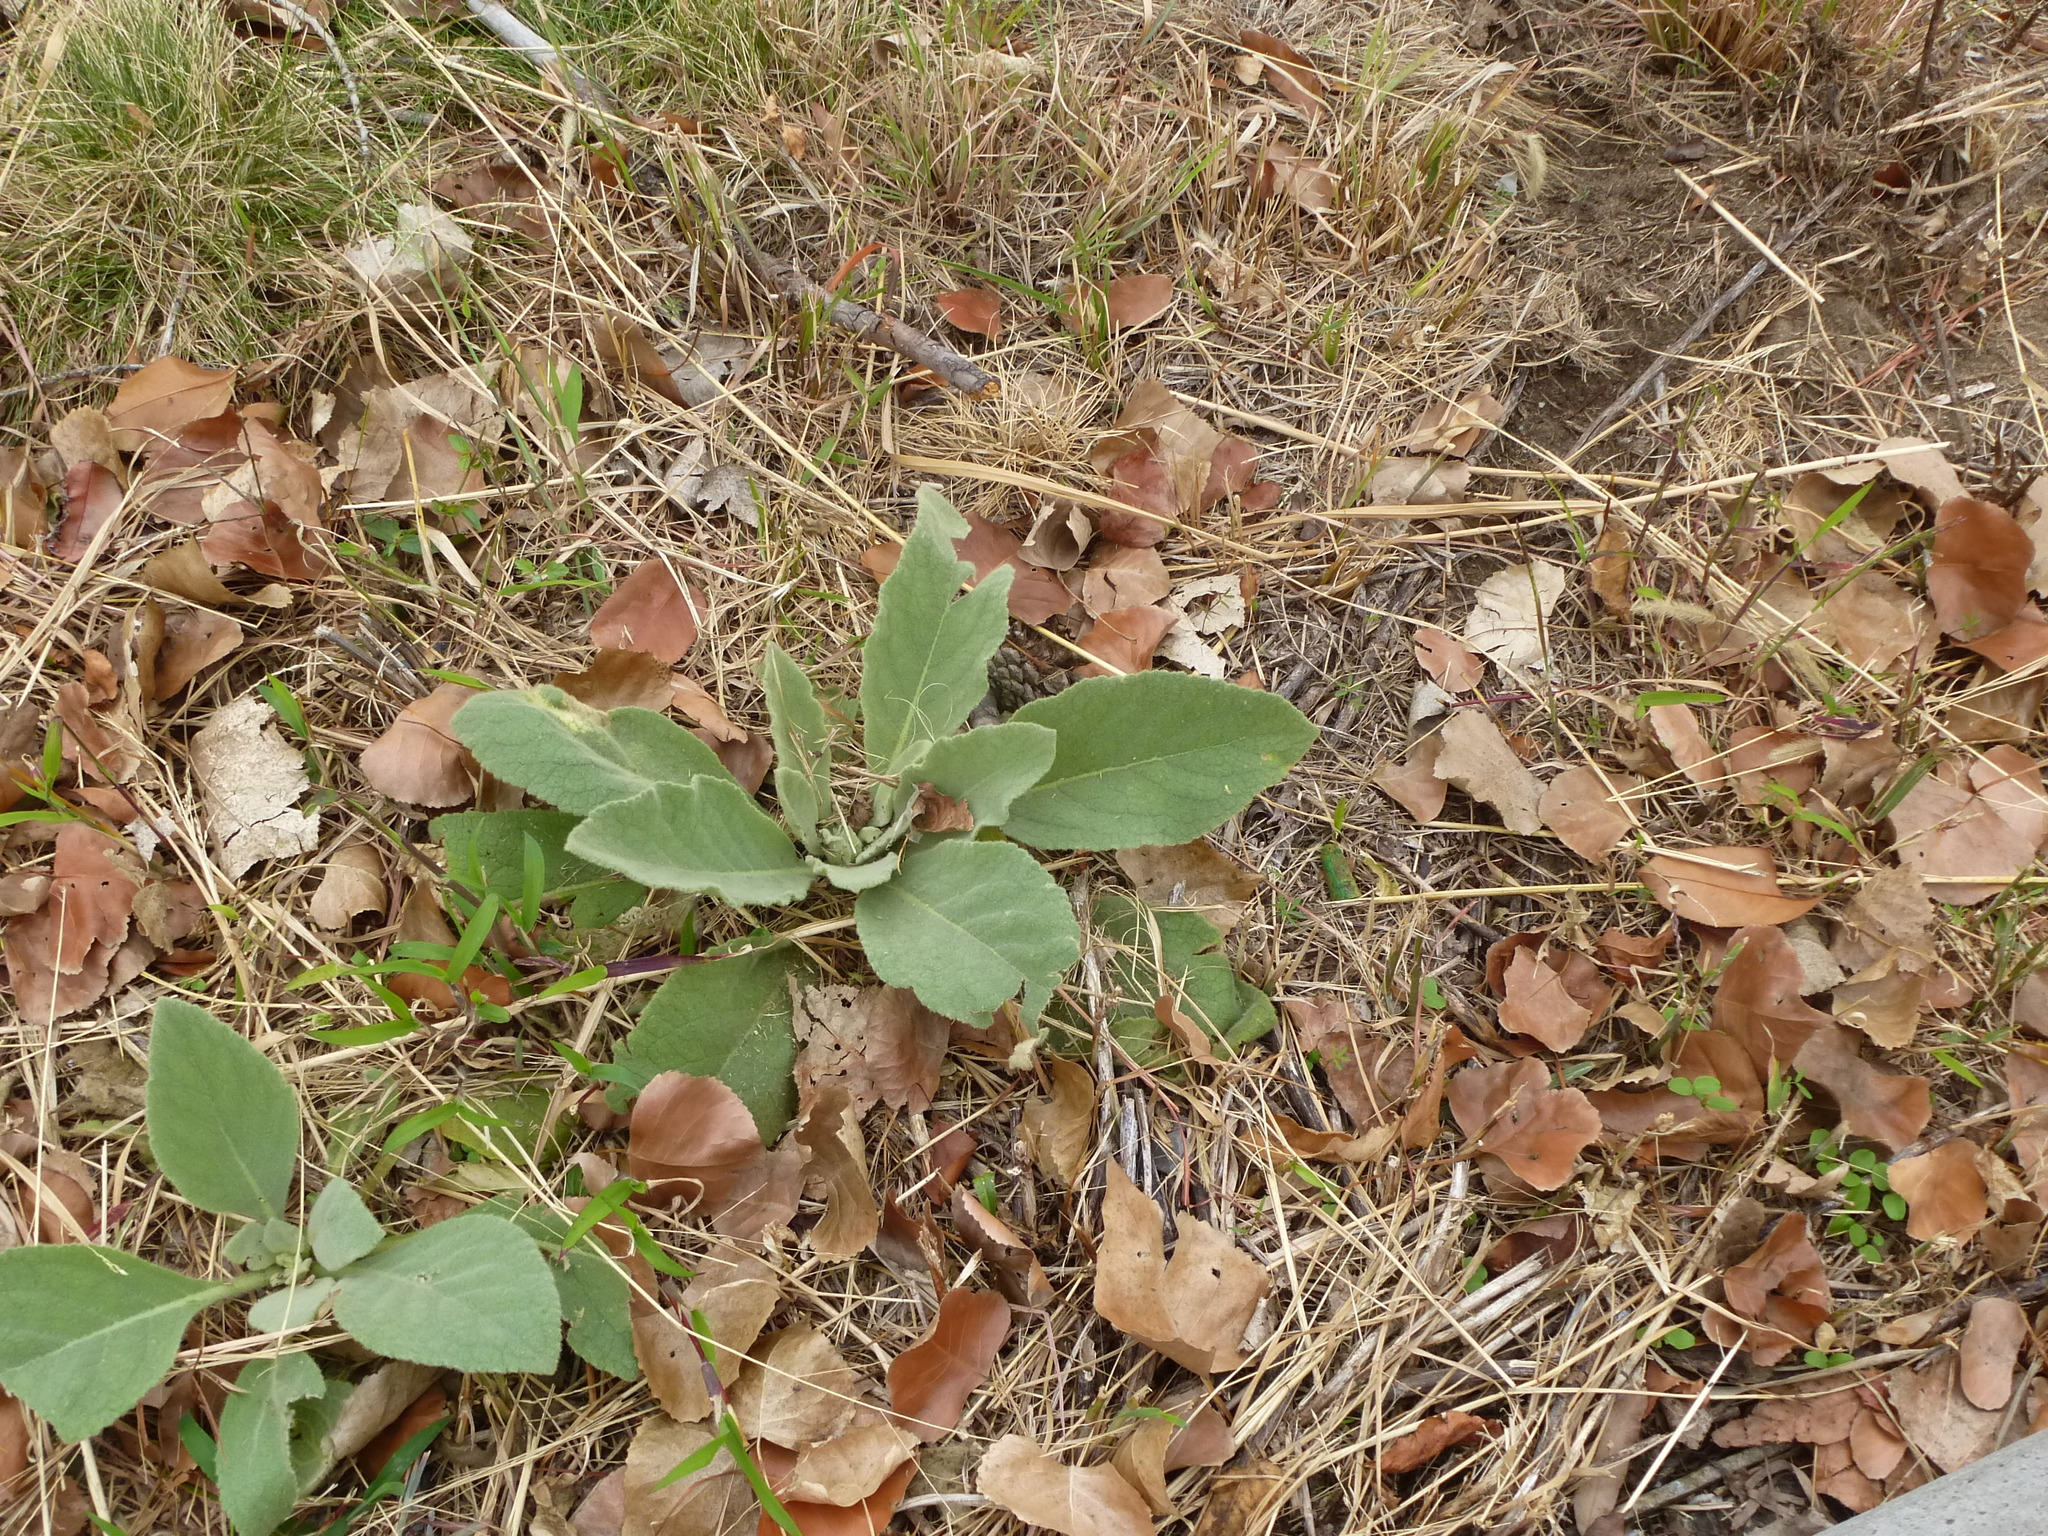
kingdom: Plantae
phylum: Tracheophyta
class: Magnoliopsida
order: Lamiales
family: Scrophulariaceae
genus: Verbascum
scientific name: Verbascum thapsus
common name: Common mullein
